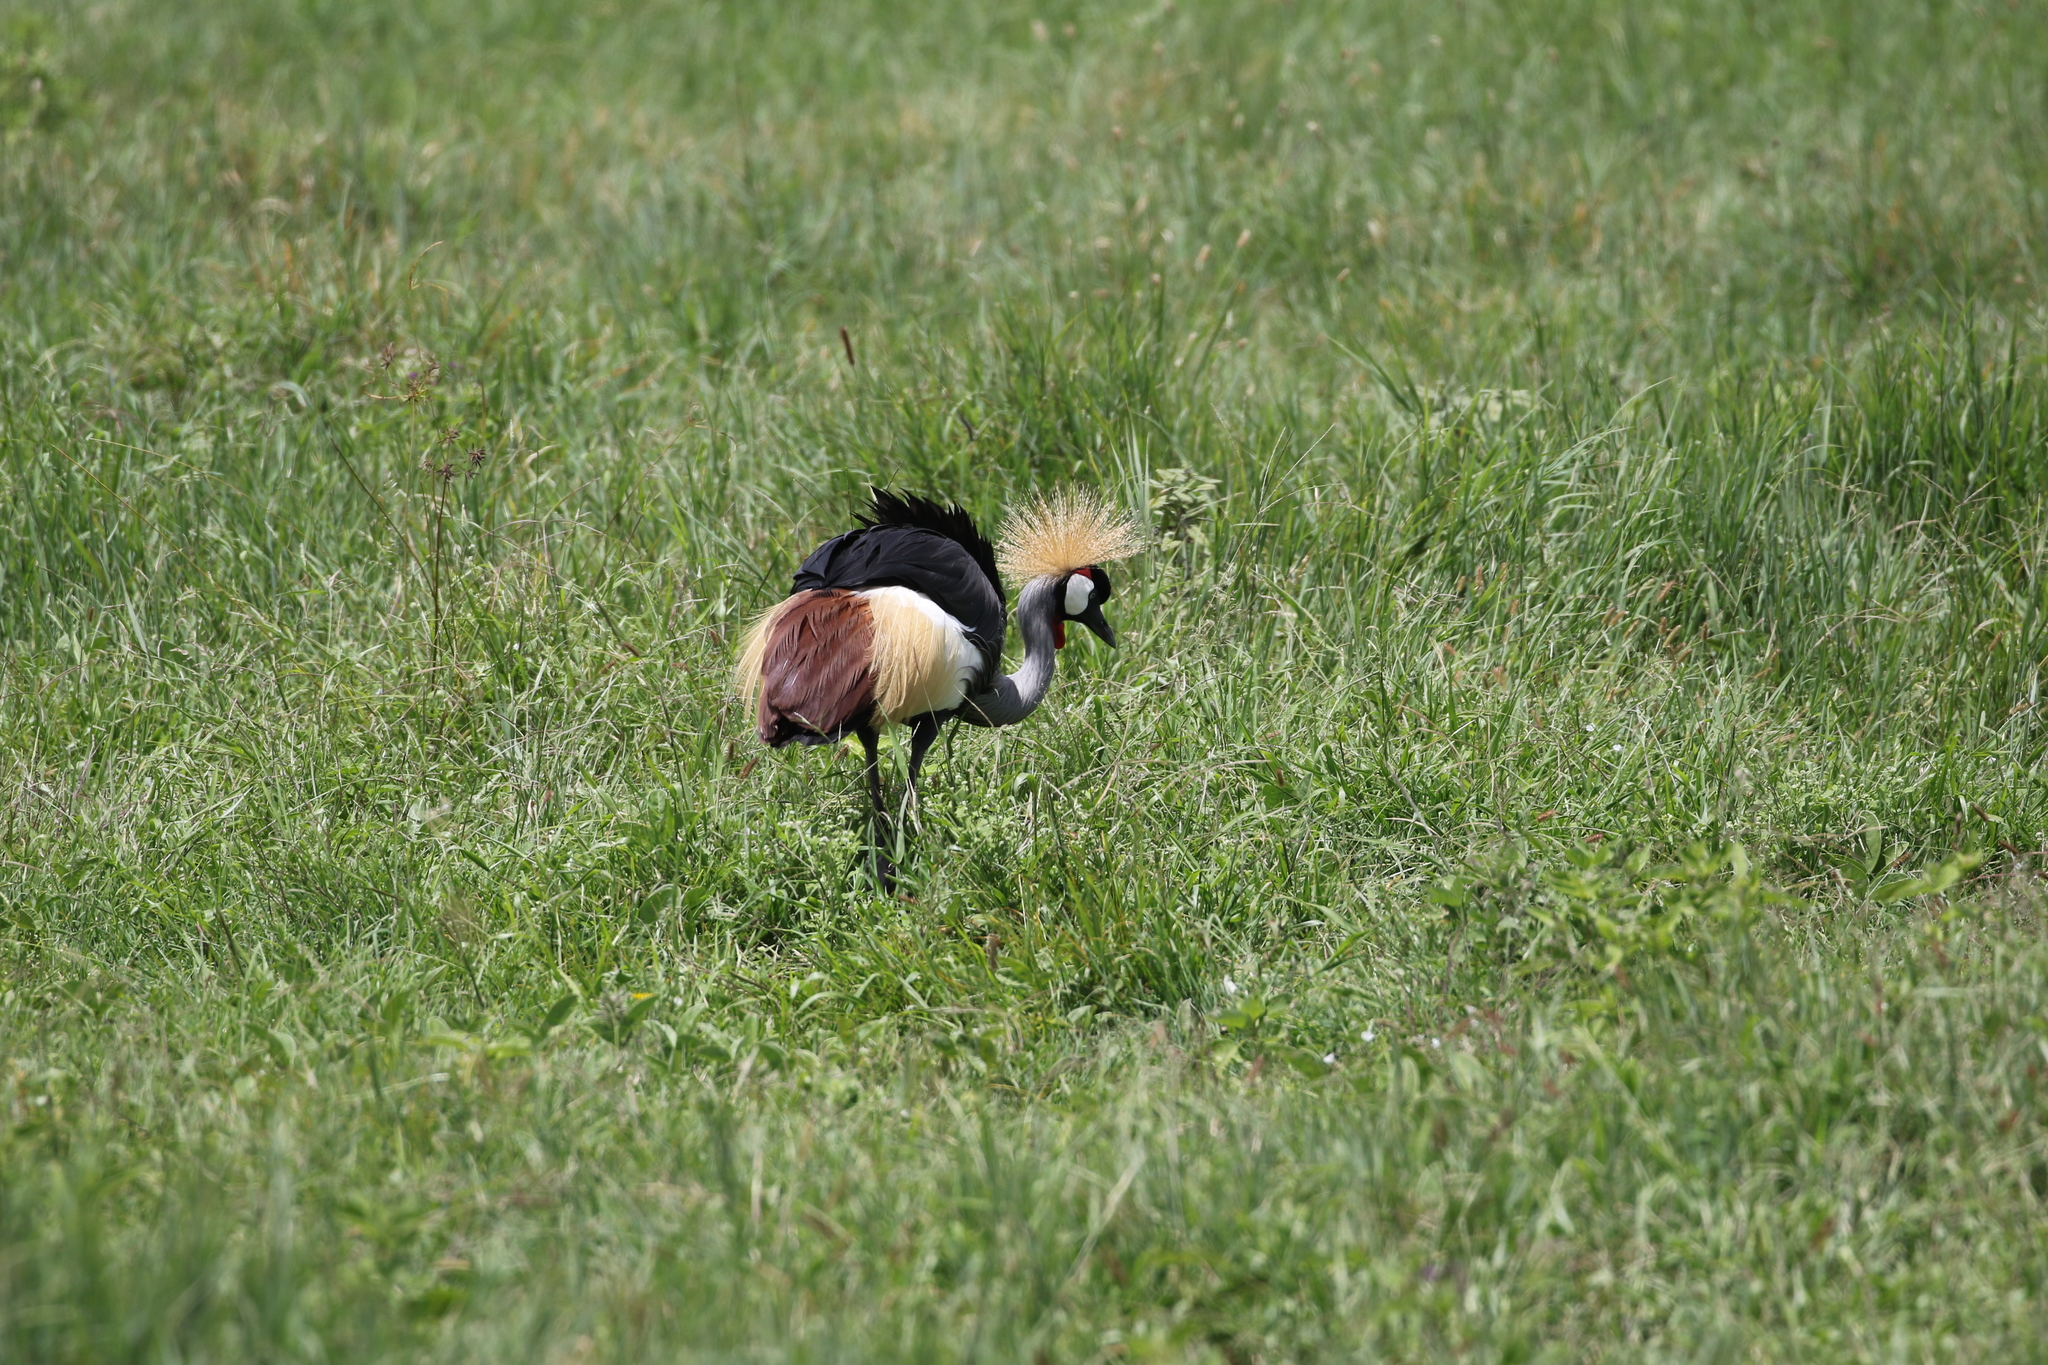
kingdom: Animalia
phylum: Chordata
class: Aves
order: Gruiformes
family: Gruidae
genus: Balearica
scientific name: Balearica regulorum
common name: Grey crowned crane
